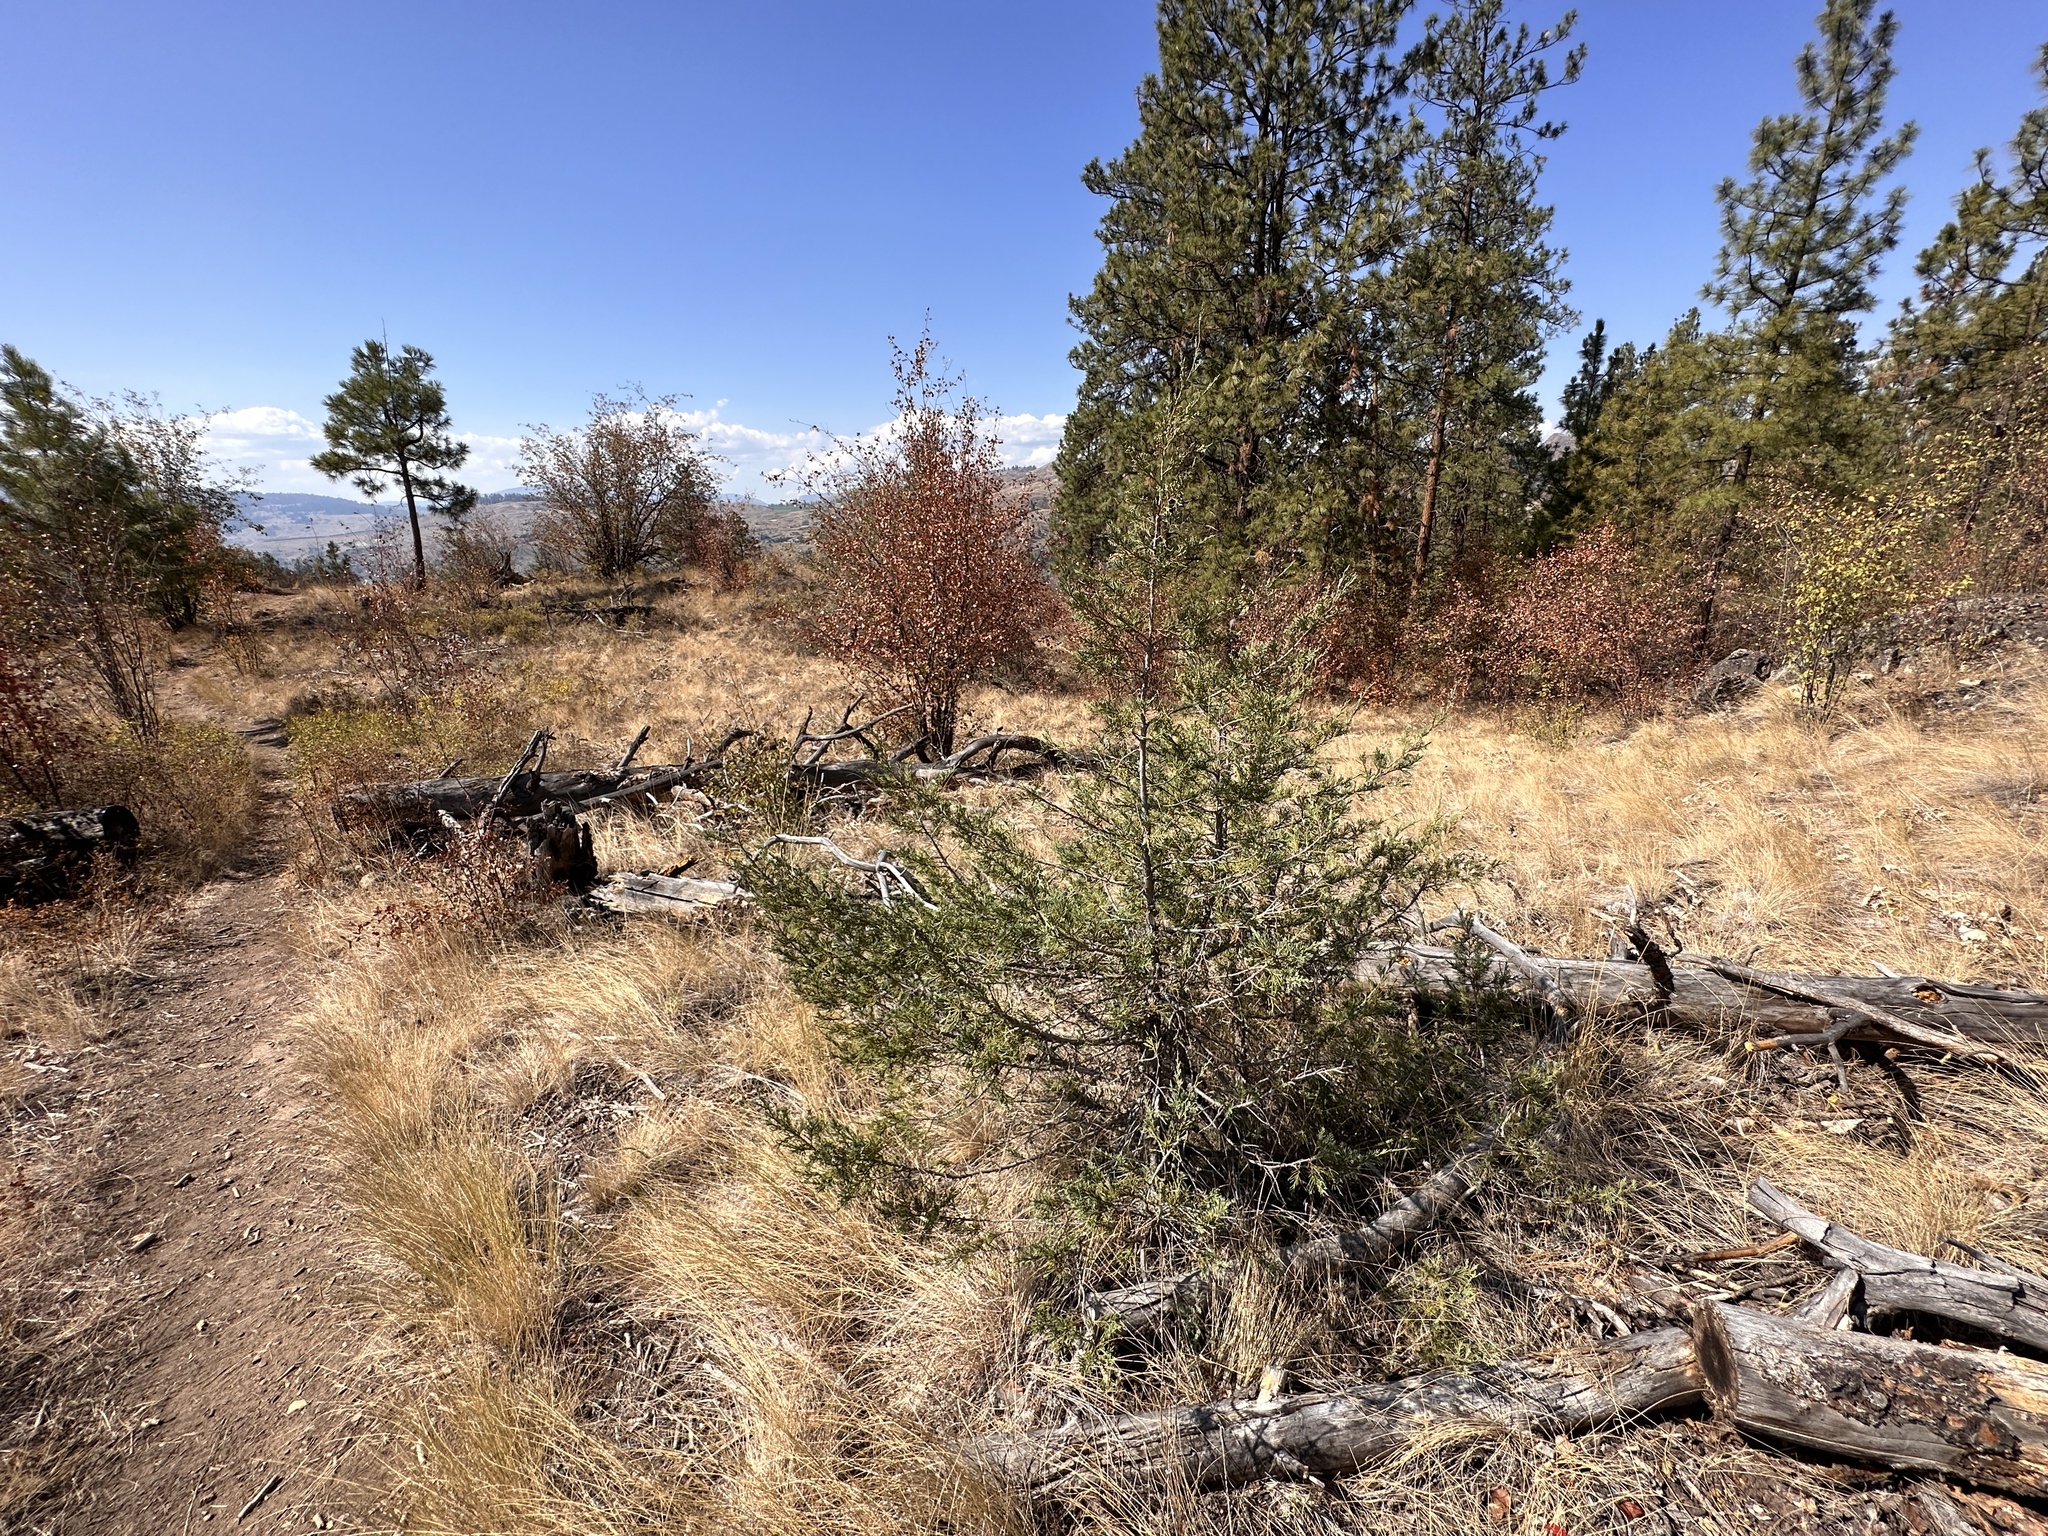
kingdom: Plantae
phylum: Tracheophyta
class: Pinopsida
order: Pinales
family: Cupressaceae
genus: Juniperus
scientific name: Juniperus scopulorum
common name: Rocky mountain juniper
